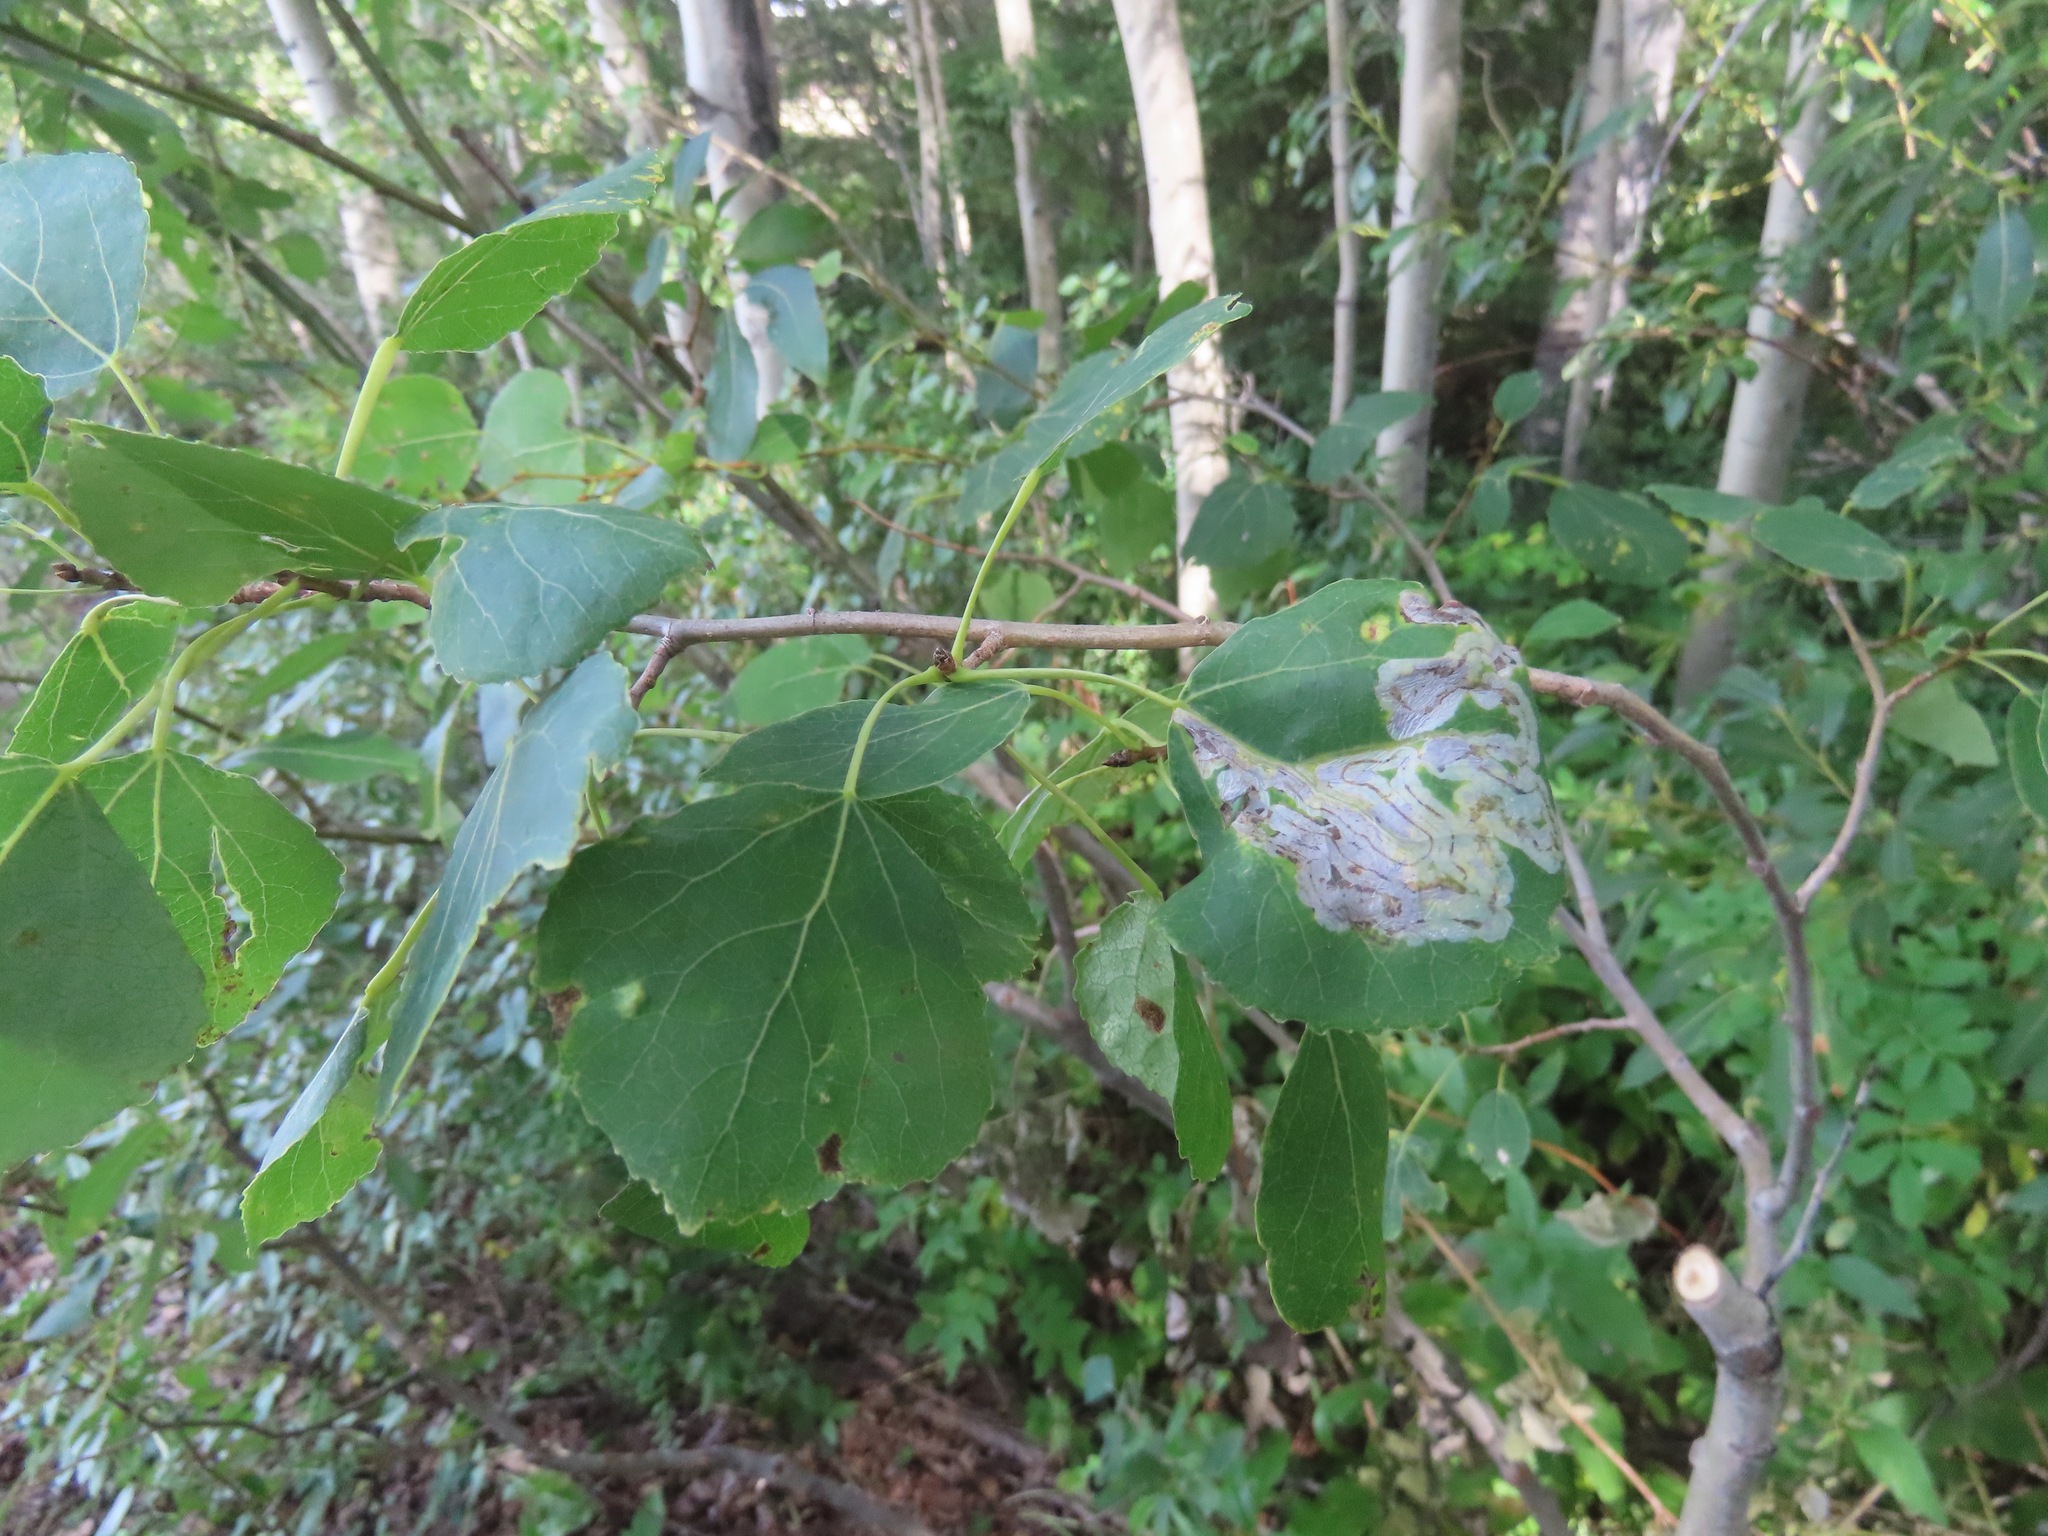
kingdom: Plantae
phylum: Tracheophyta
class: Magnoliopsida
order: Malpighiales
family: Salicaceae
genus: Populus
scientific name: Populus tremuloides
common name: Quaking aspen
